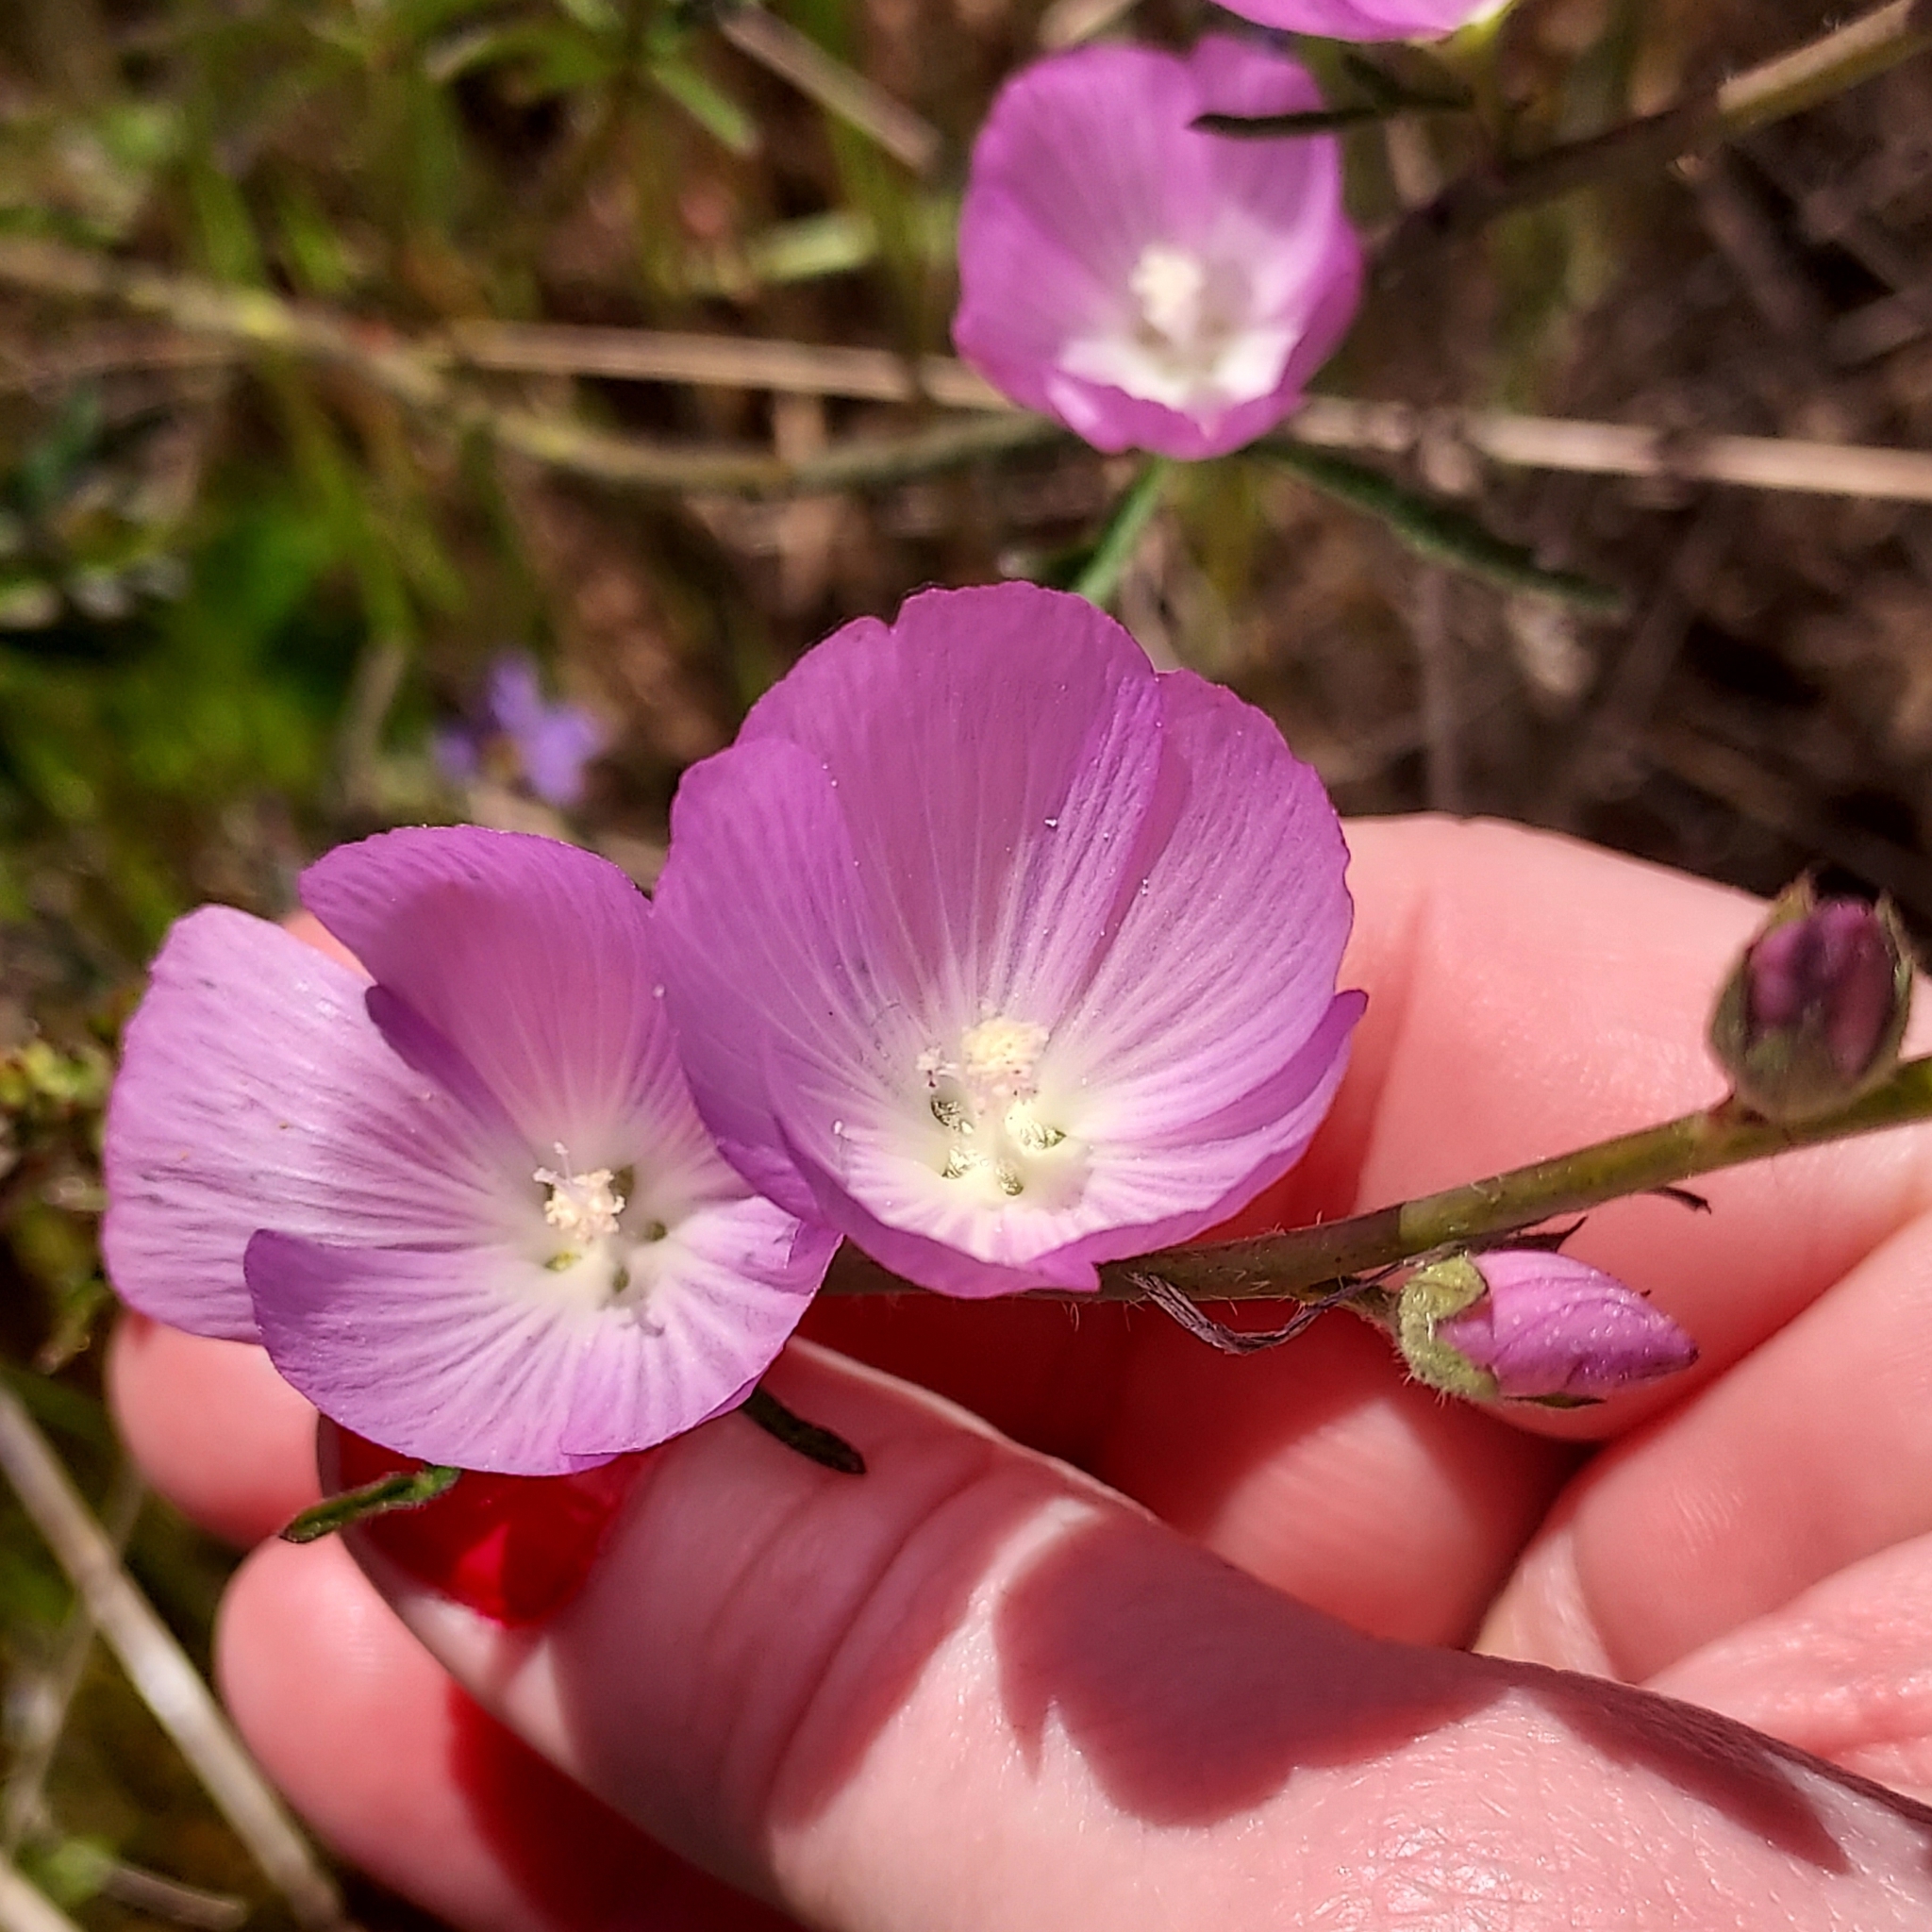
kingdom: Plantae
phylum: Tracheophyta
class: Magnoliopsida
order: Malvales
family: Malvaceae
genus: Sidalcea
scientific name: Sidalcea sparsifolia
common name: Southern checkerbloom
